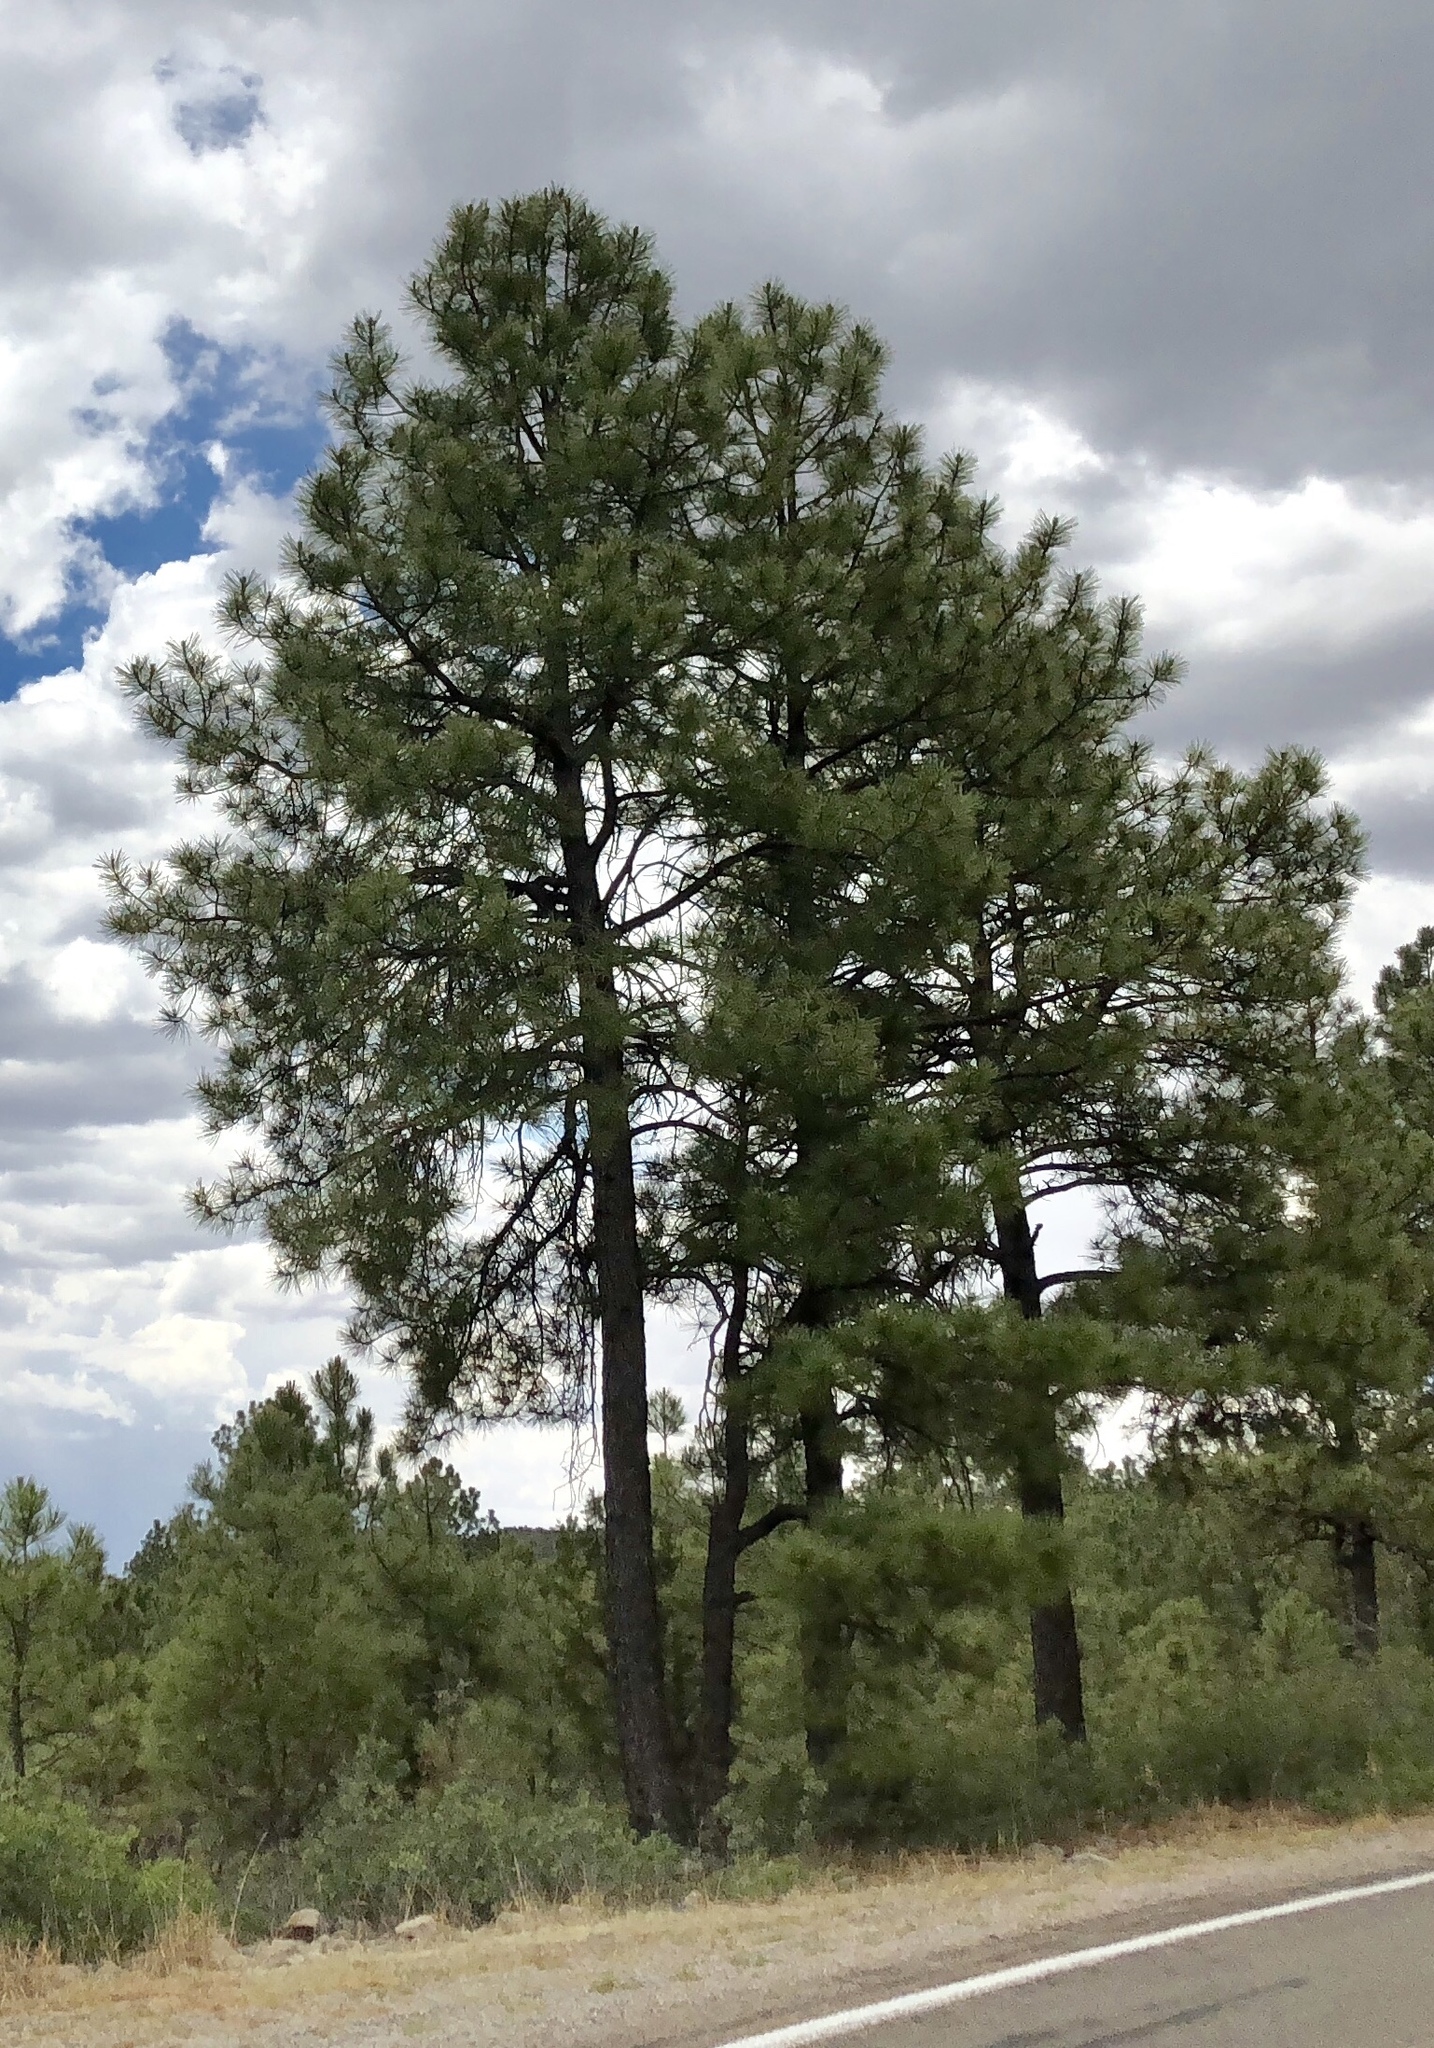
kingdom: Plantae
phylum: Tracheophyta
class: Pinopsida
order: Pinales
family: Pinaceae
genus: Pinus
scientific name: Pinus ponderosa
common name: Western yellow-pine
